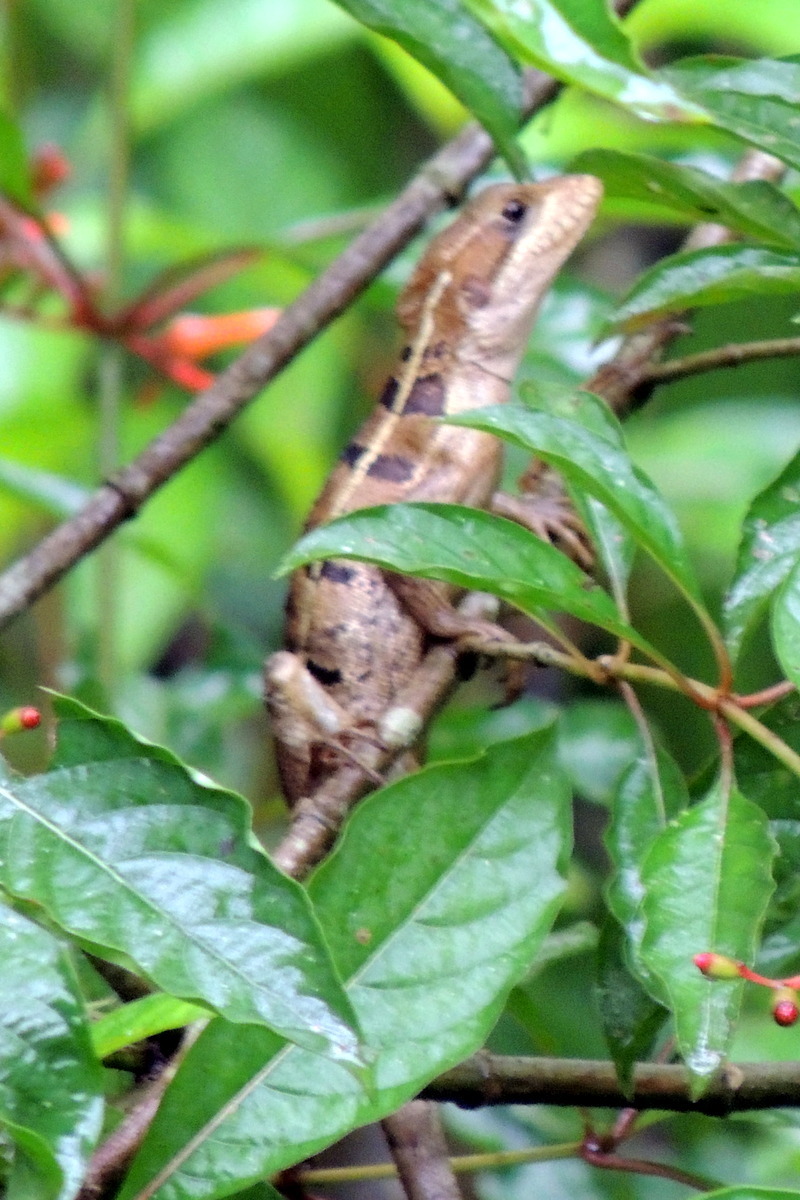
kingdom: Animalia
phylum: Chordata
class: Squamata
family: Corytophanidae
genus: Basiliscus
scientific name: Basiliscus vittatus
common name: Brown basilisk
